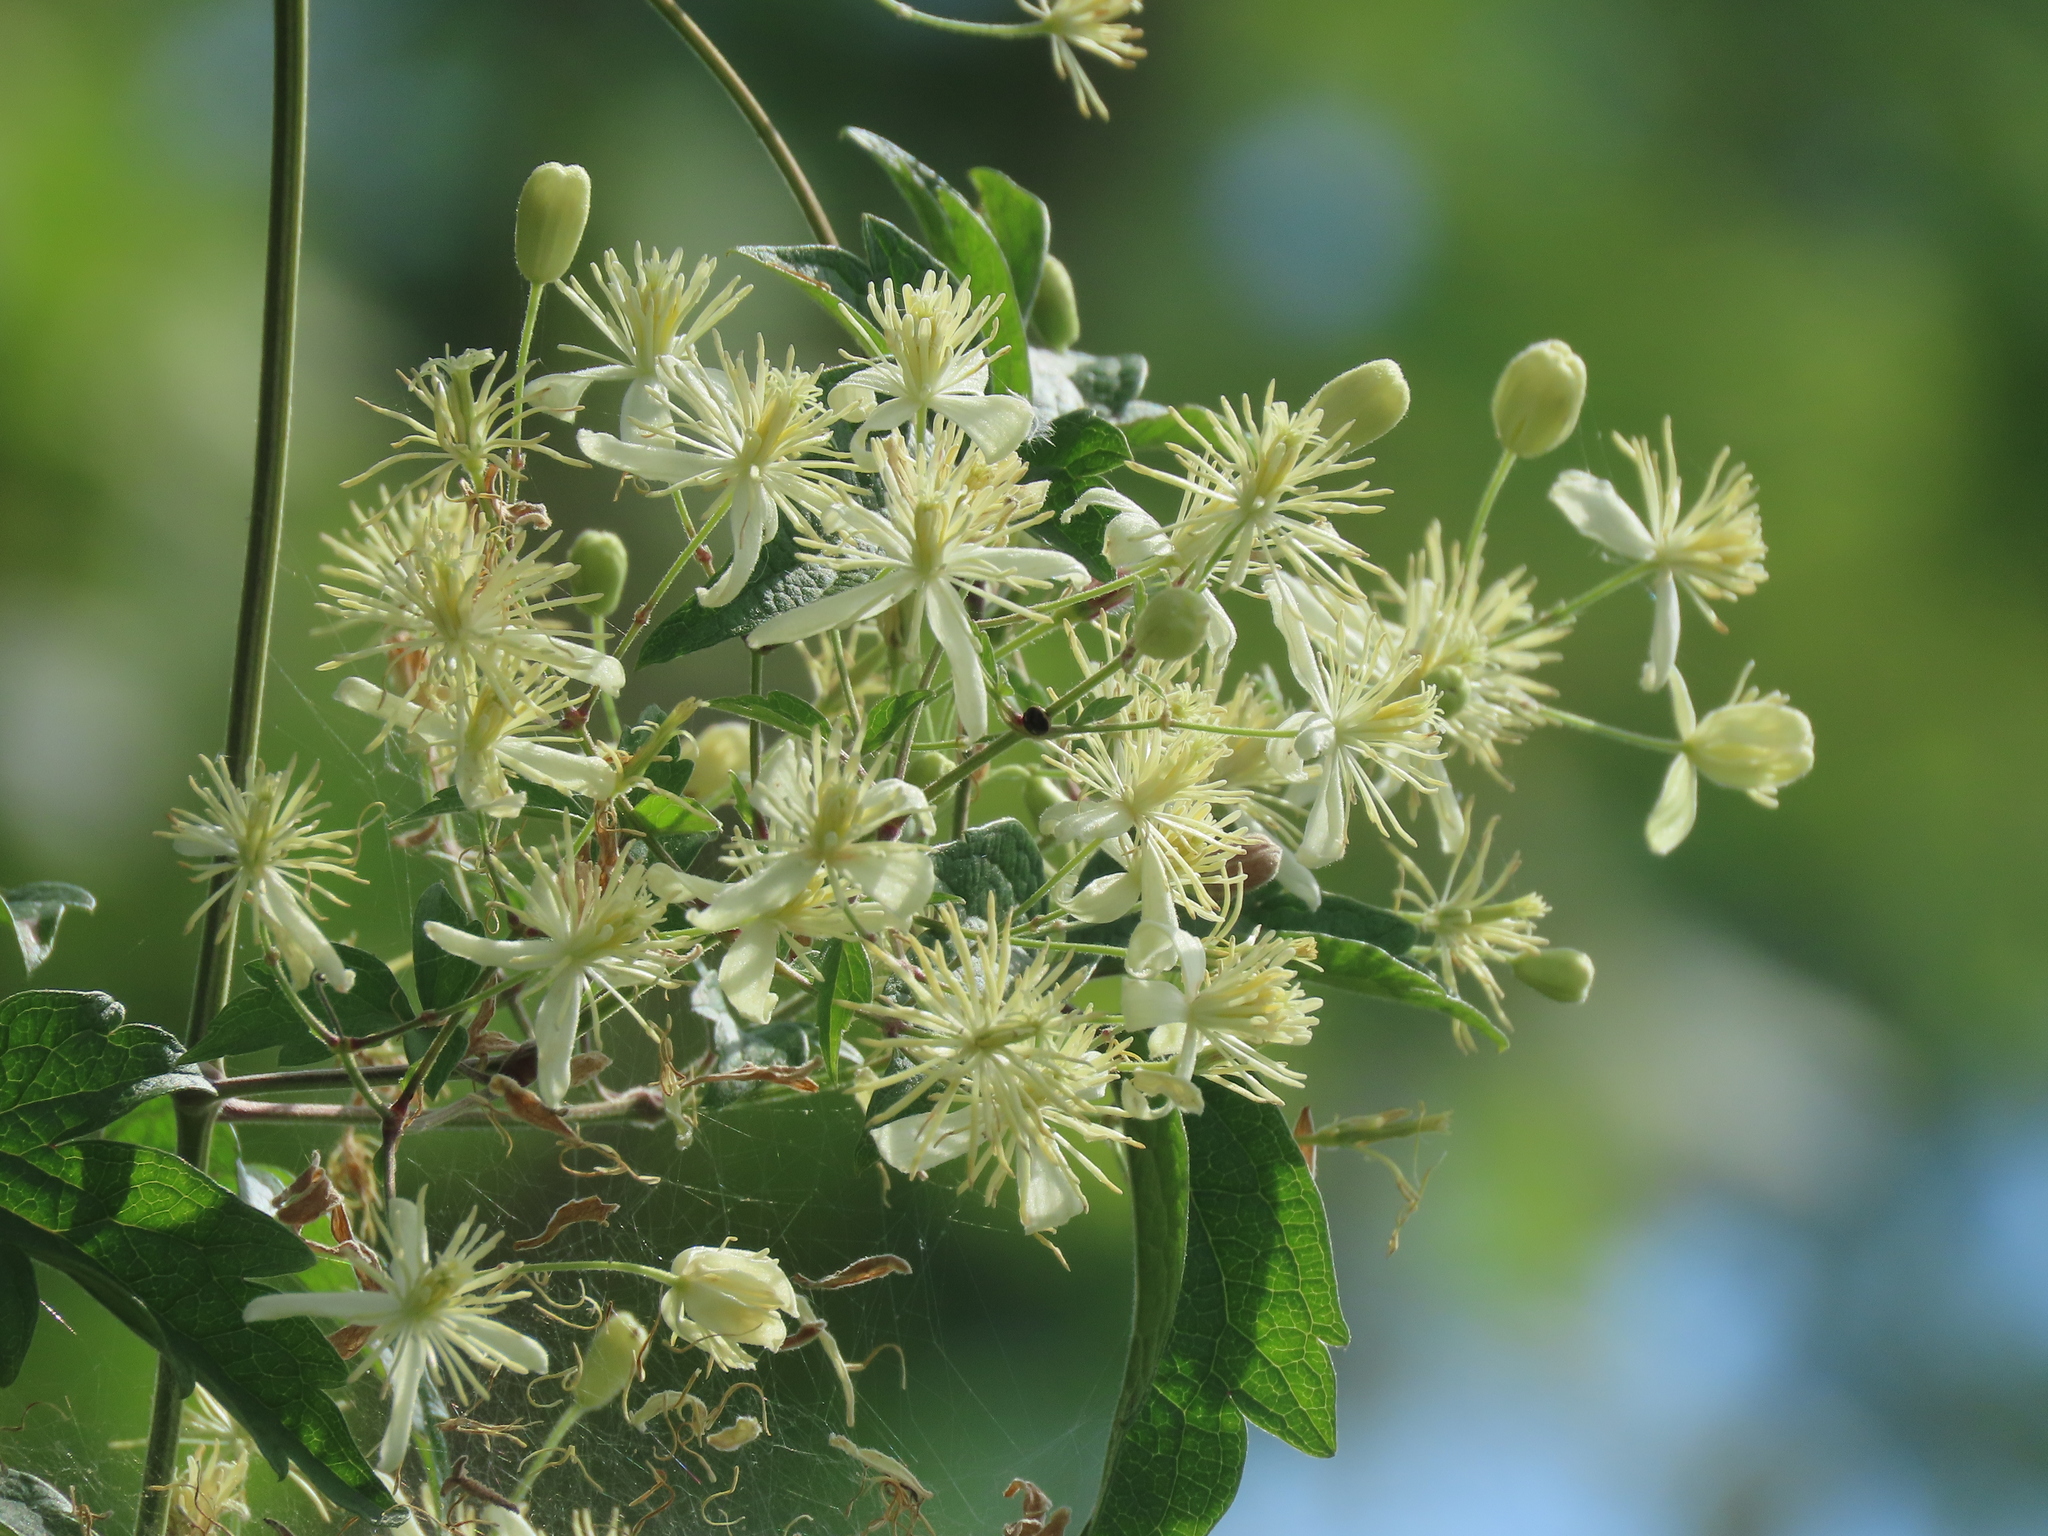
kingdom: Plantae
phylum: Tracheophyta
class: Magnoliopsida
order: Ranunculales
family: Ranunculaceae
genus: Clematis
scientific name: Clematis grata
